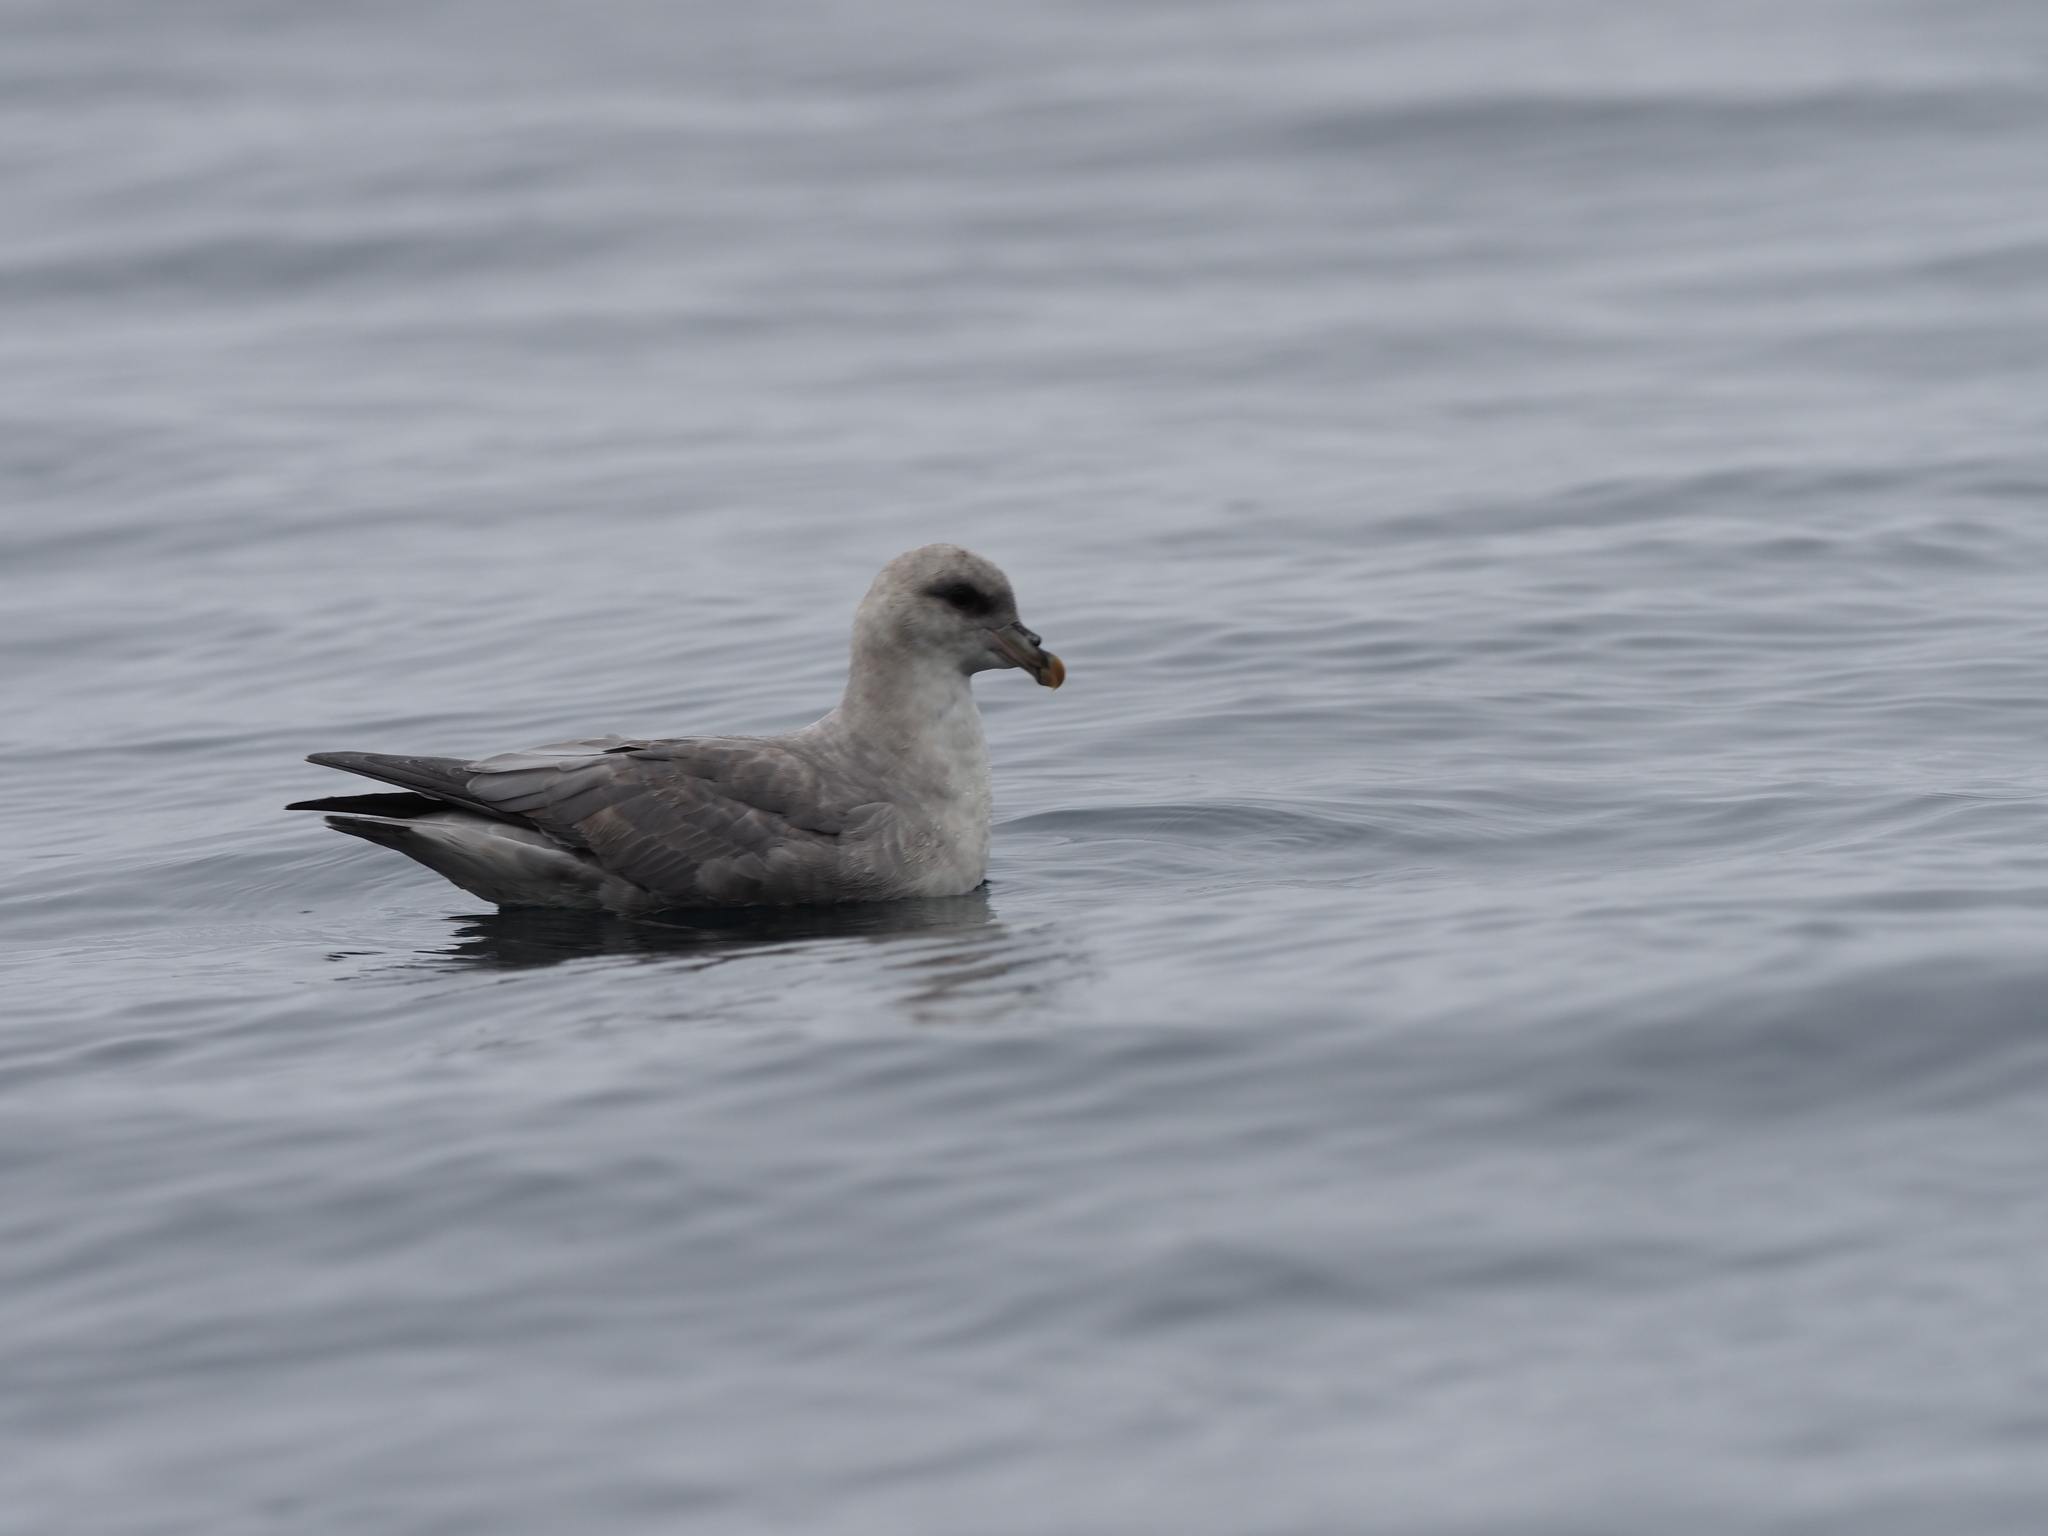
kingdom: Animalia
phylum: Chordata
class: Aves
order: Procellariiformes
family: Procellariidae
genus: Fulmarus
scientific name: Fulmarus glacialis
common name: Northern fulmar
